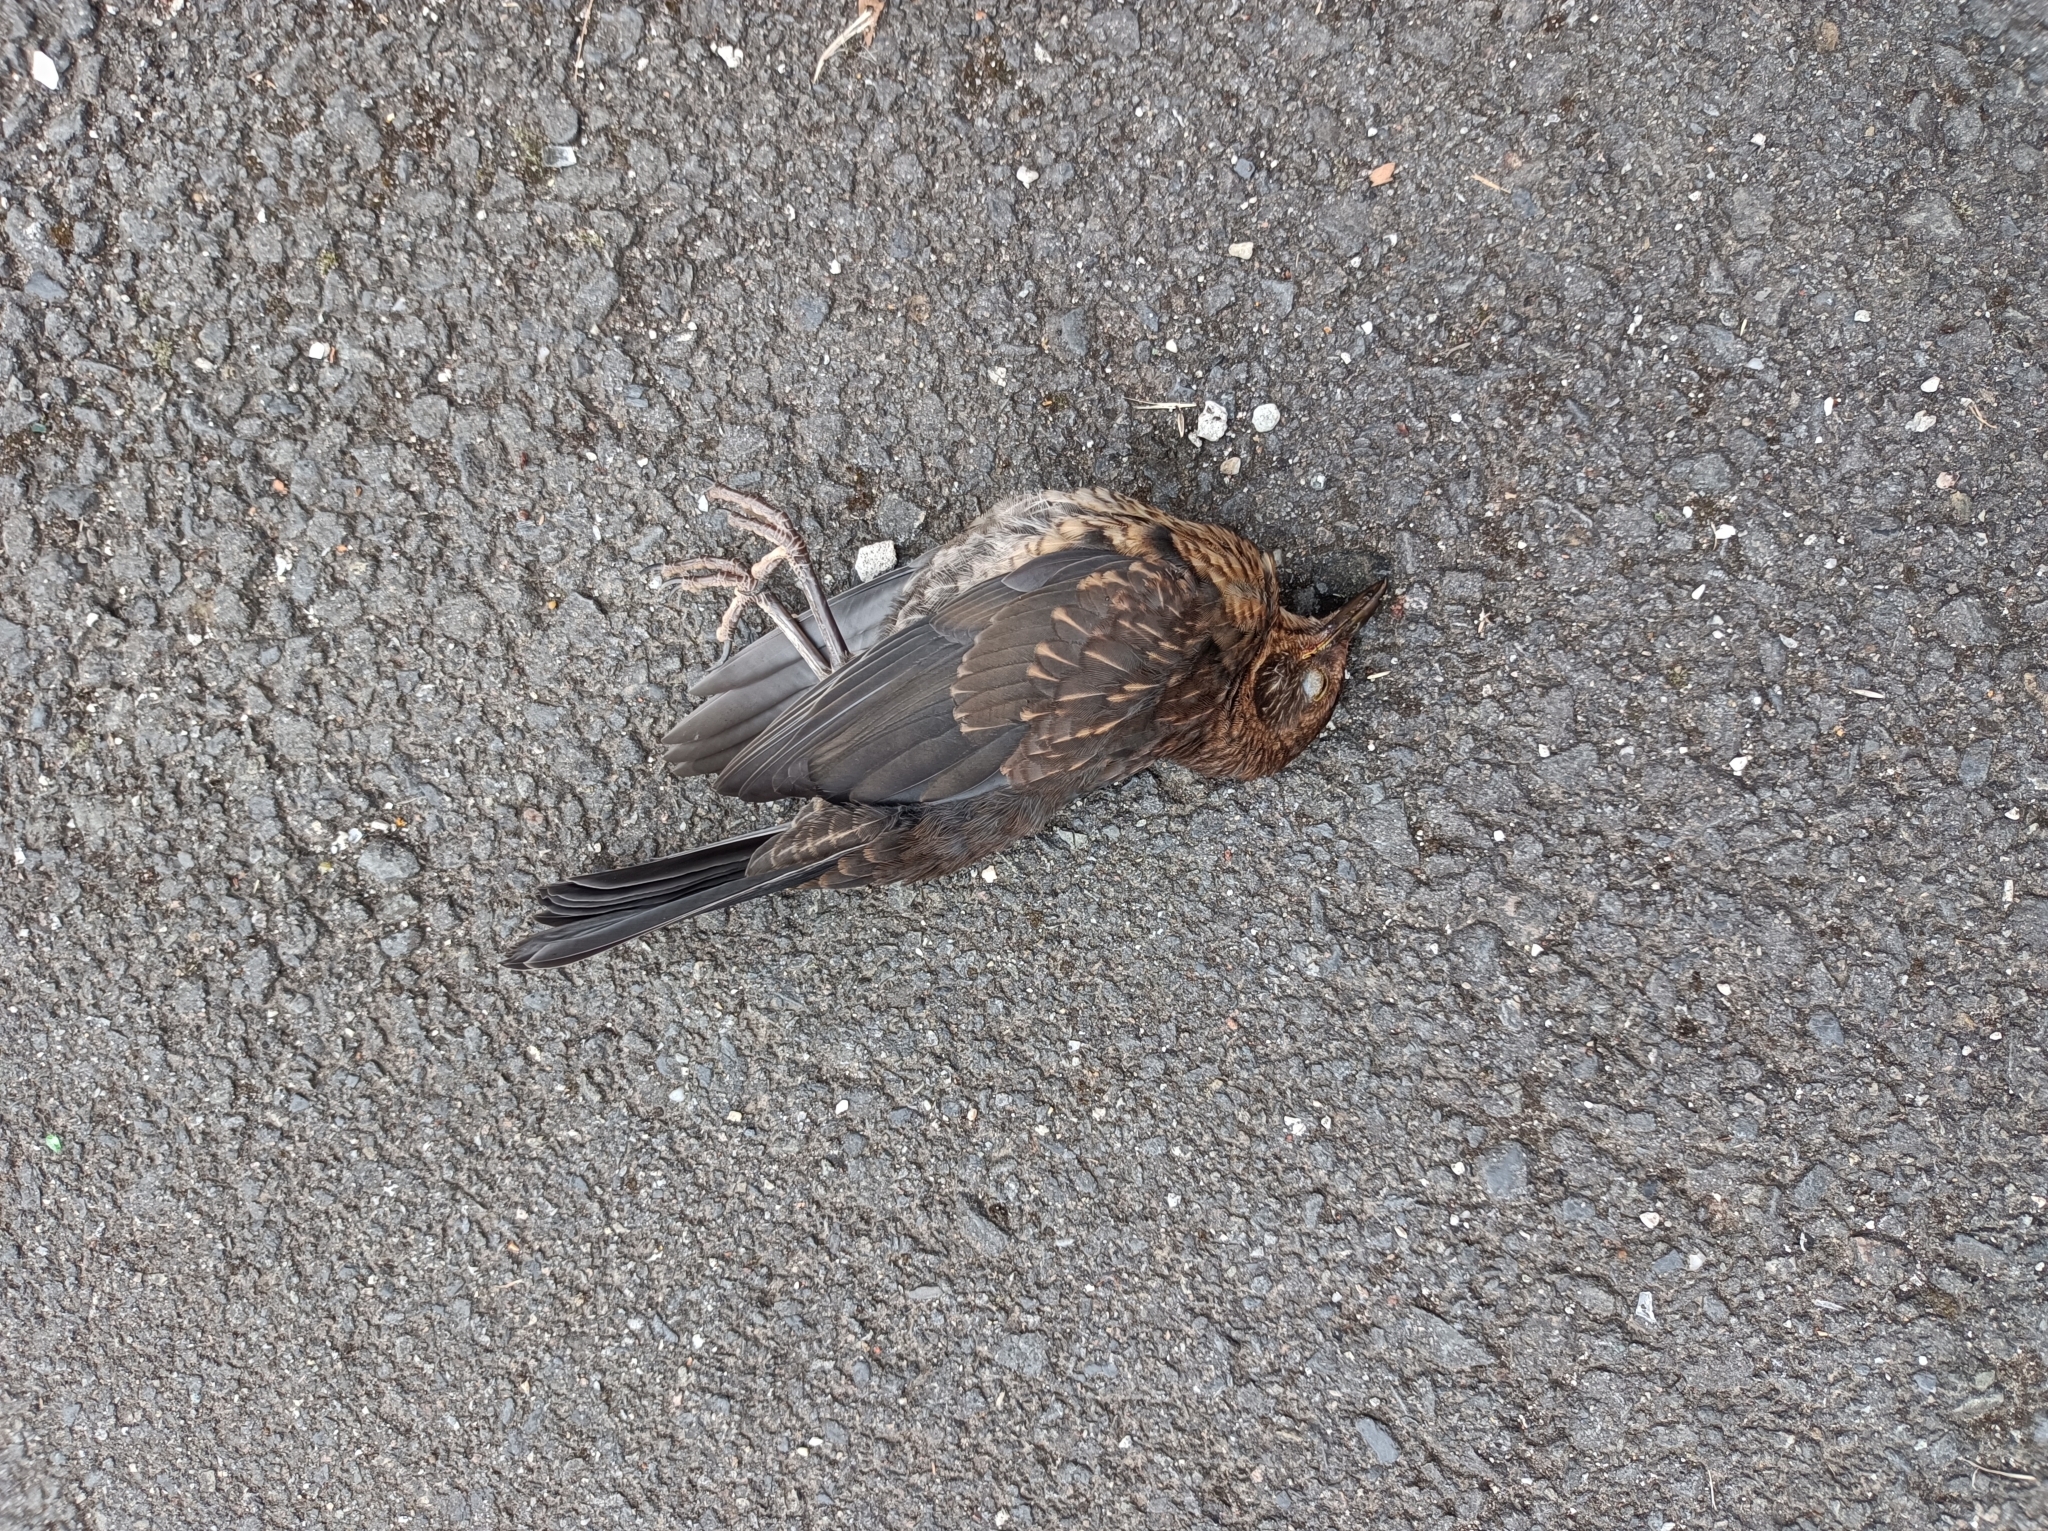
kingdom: Animalia
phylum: Chordata
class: Aves
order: Passeriformes
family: Turdidae
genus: Turdus
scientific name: Turdus merula
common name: Common blackbird
